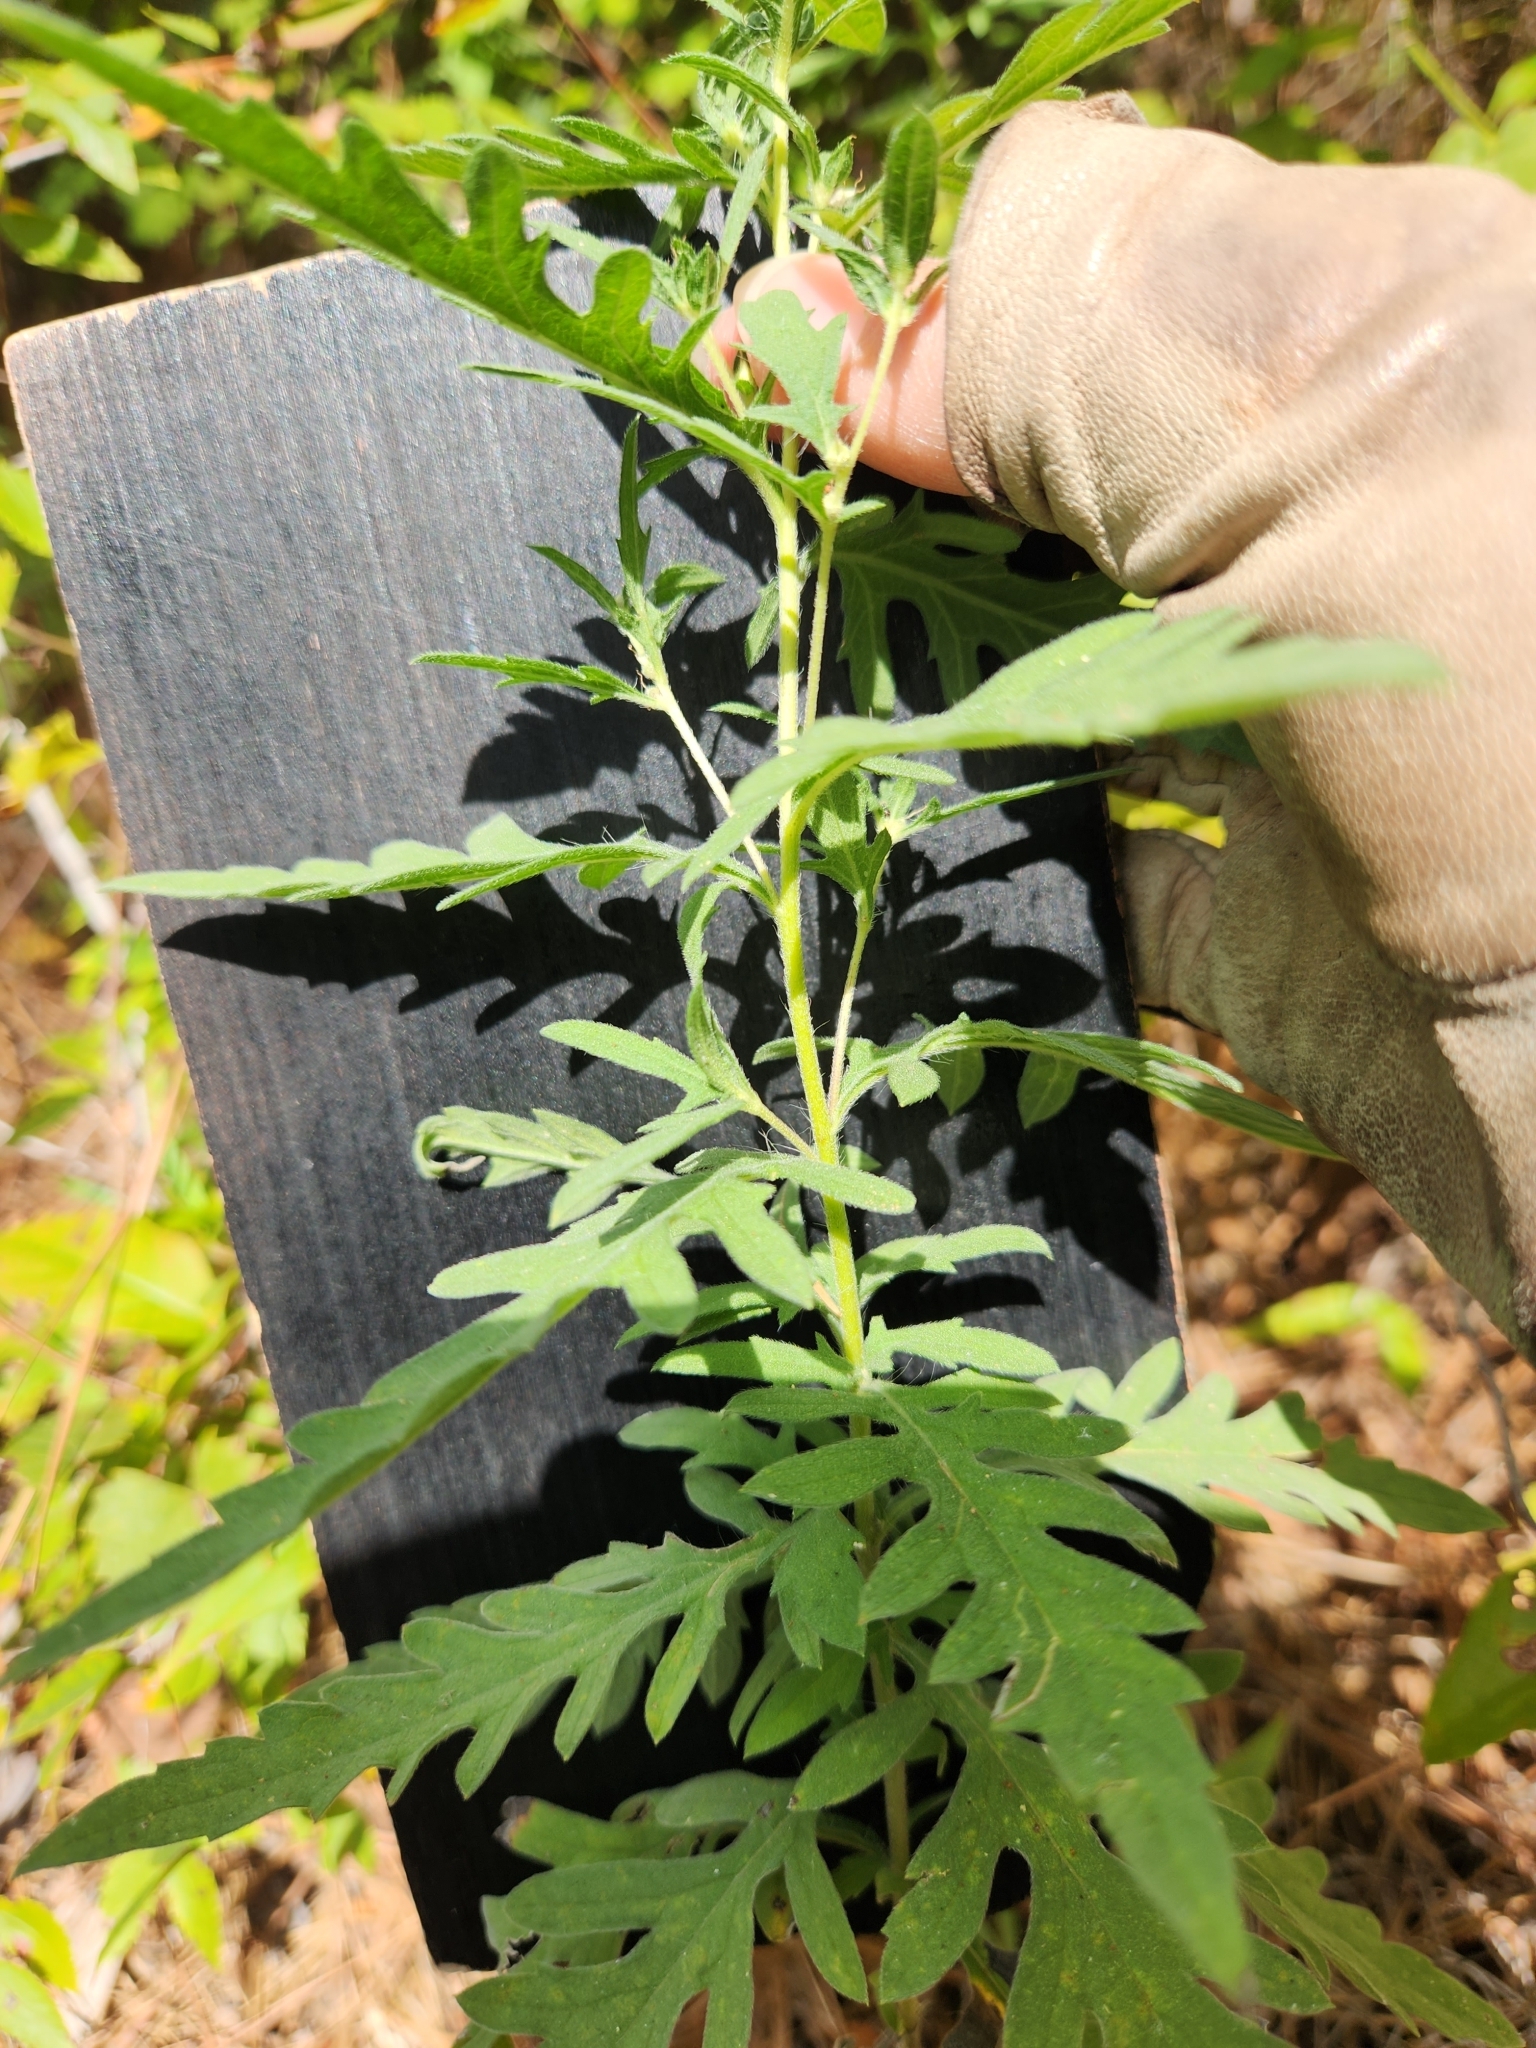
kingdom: Plantae
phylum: Tracheophyta
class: Magnoliopsida
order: Asterales
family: Asteraceae
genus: Ambrosia
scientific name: Ambrosia psilostachya
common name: Perennial ragweed
